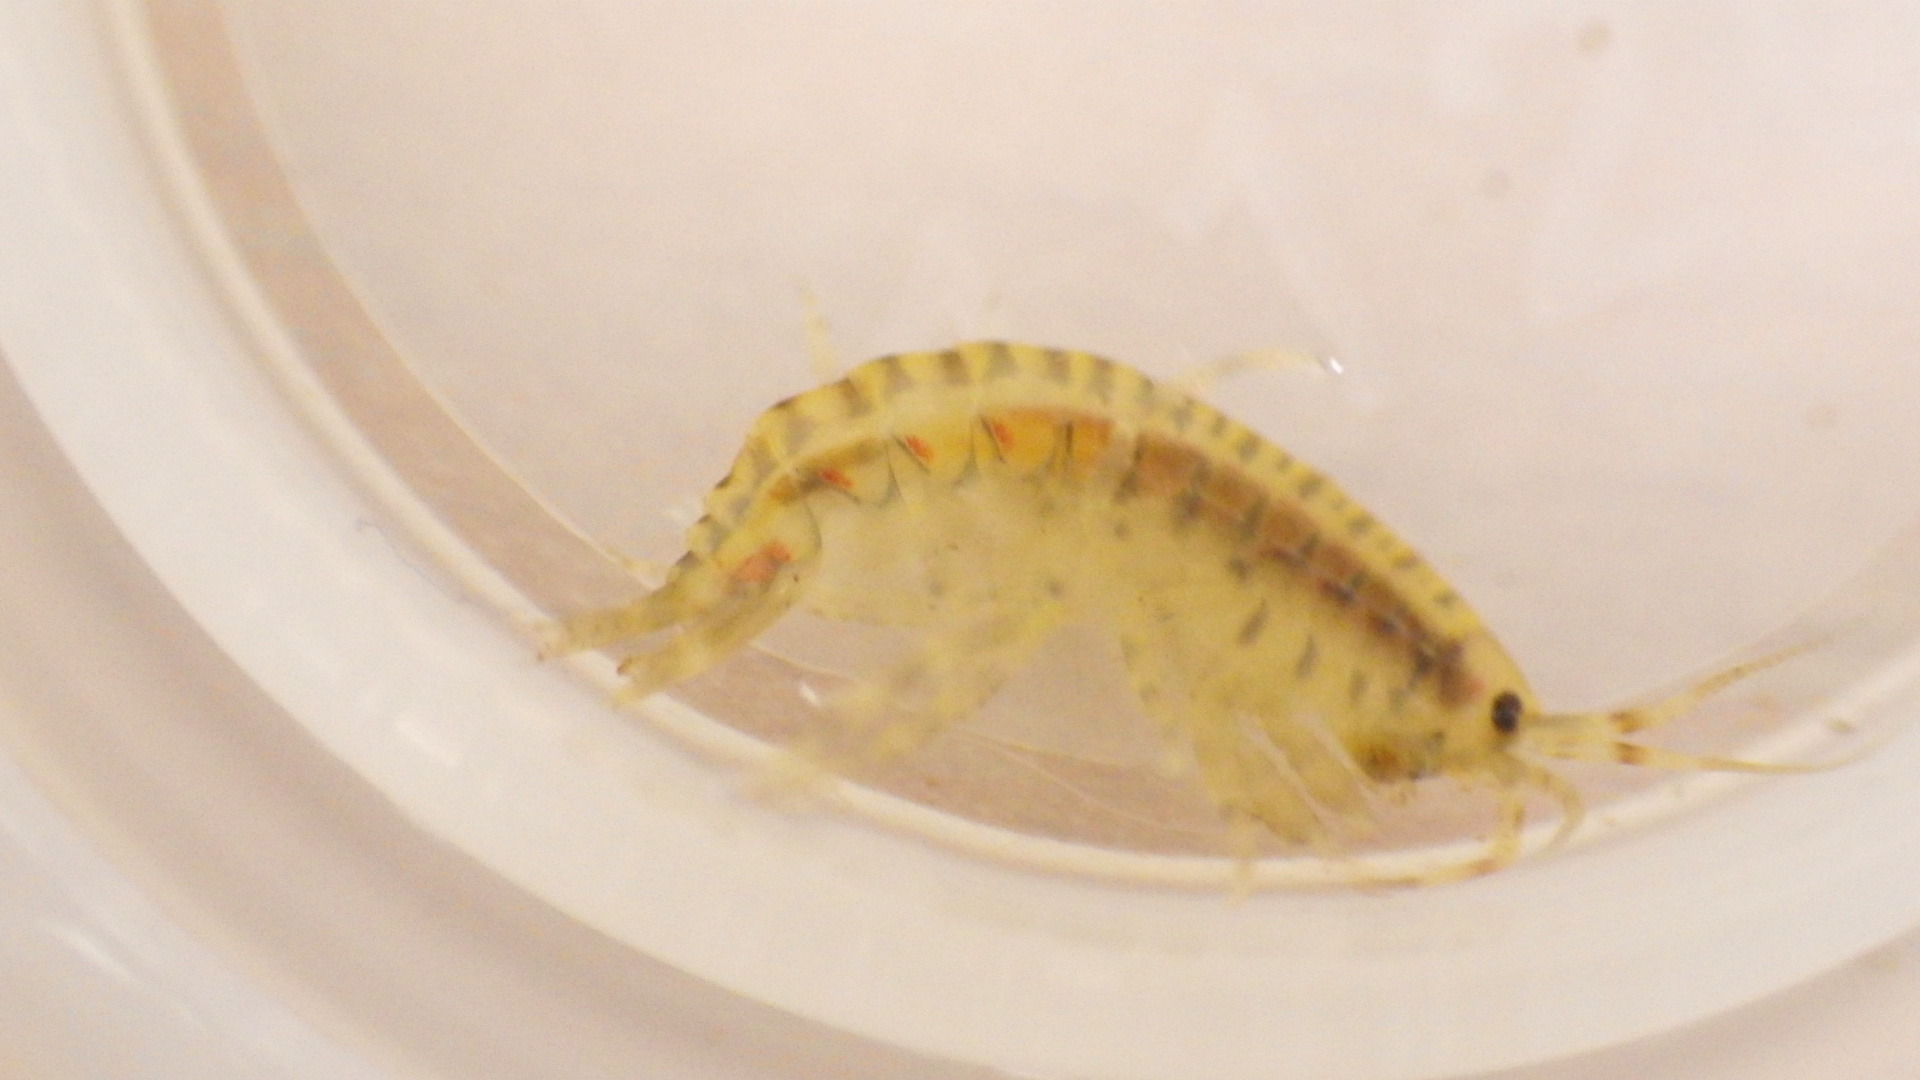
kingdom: Animalia
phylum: Arthropoda
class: Malacostraca
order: Amphipoda
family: Gammaridae
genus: Gammarus
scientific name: Gammarus fasciatus
